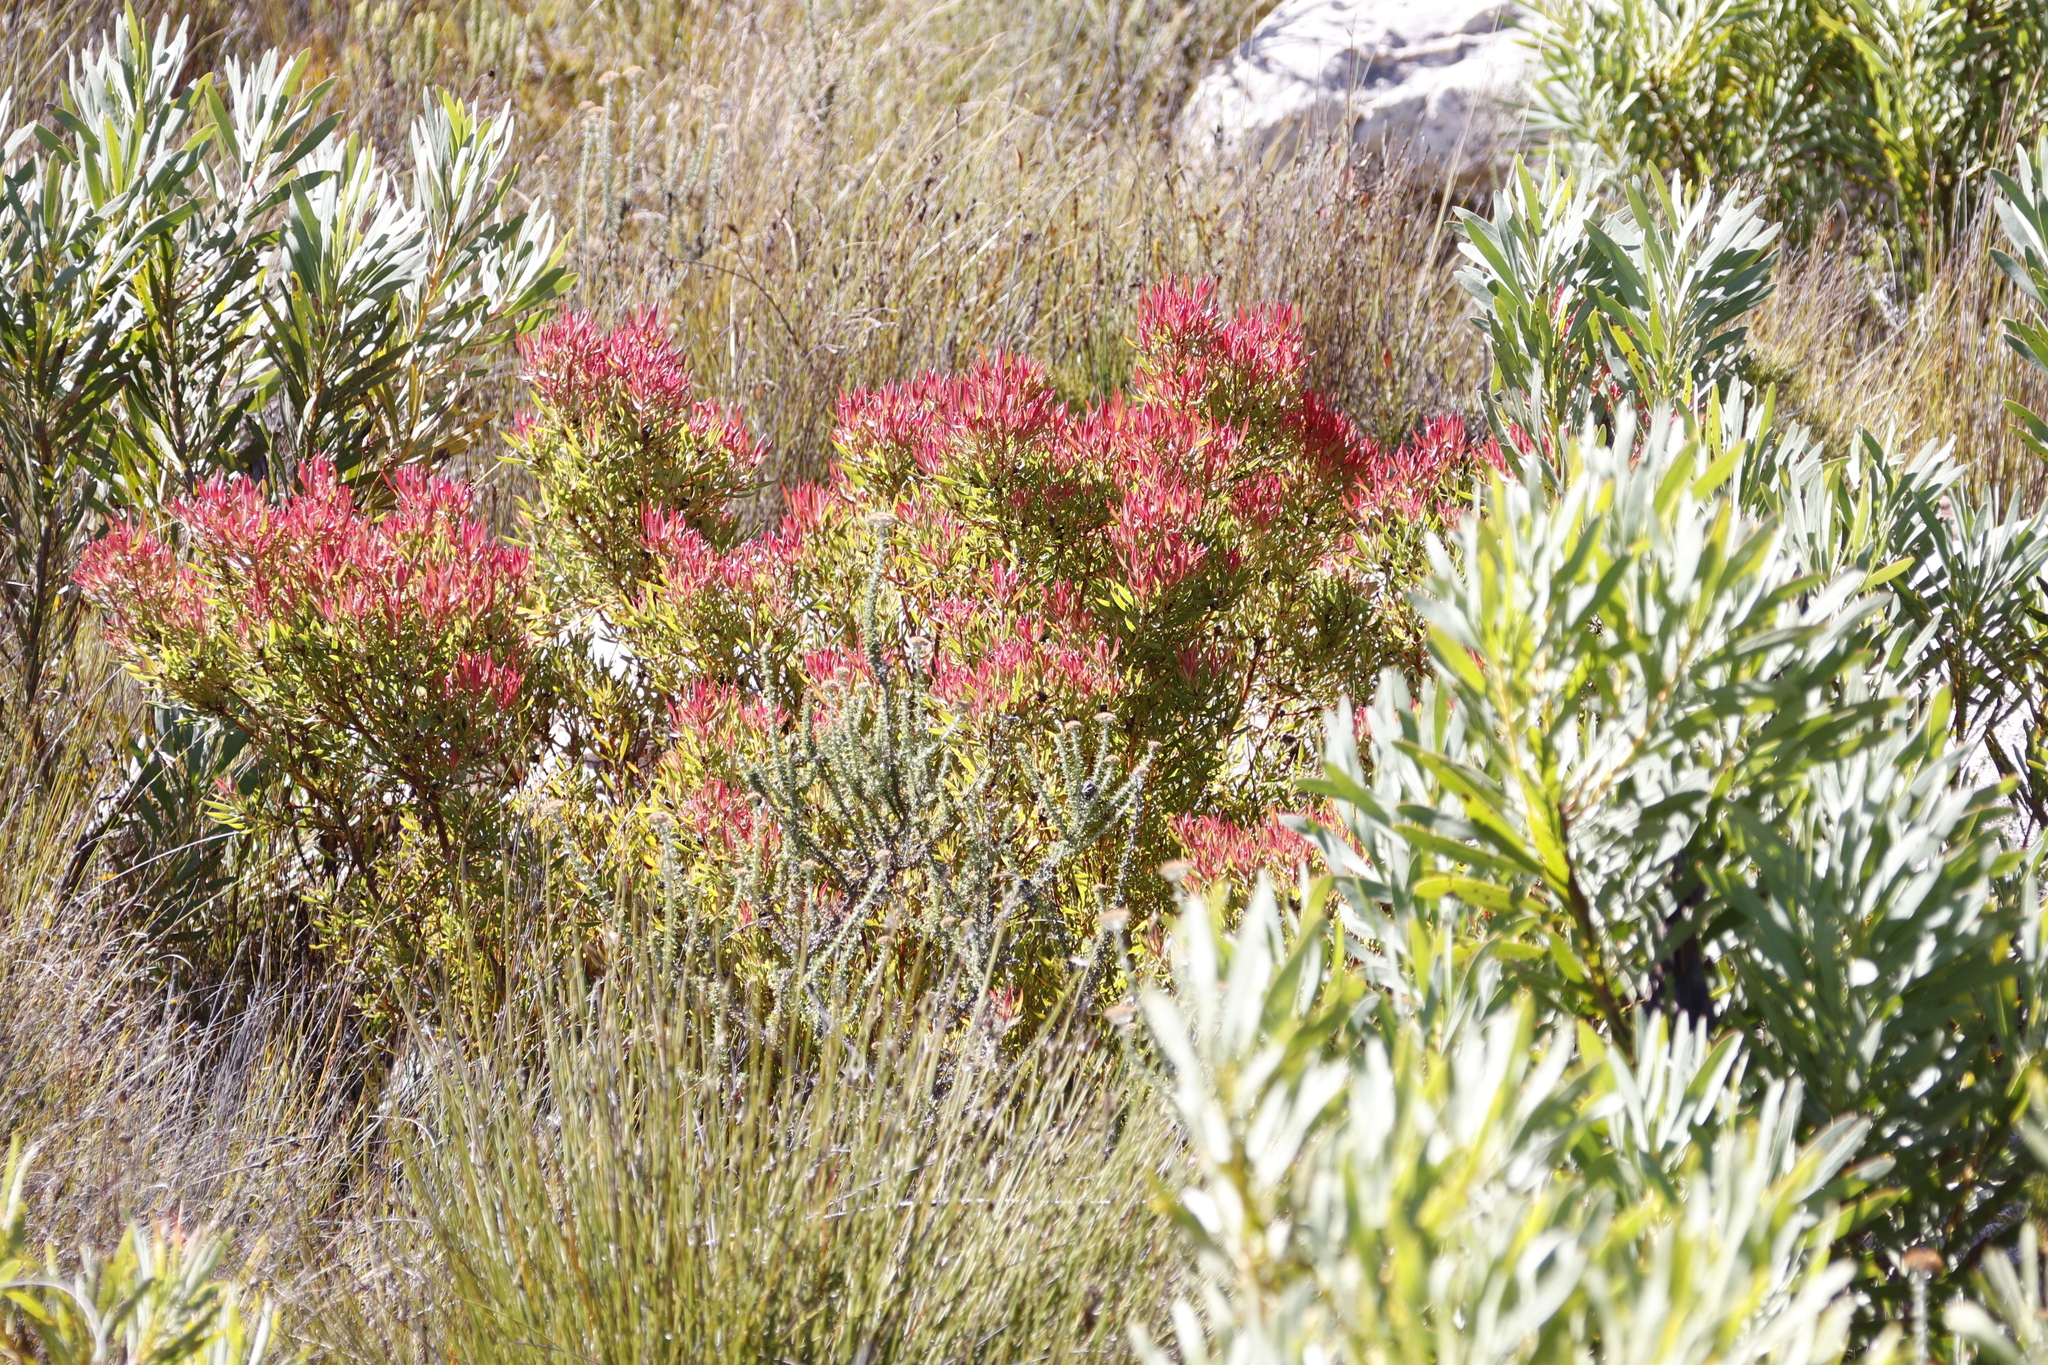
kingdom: Plantae
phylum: Tracheophyta
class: Magnoliopsida
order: Proteales
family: Proteaceae
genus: Leucadendron
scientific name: Leucadendron spissifolium
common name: Spear-leaf conebush
